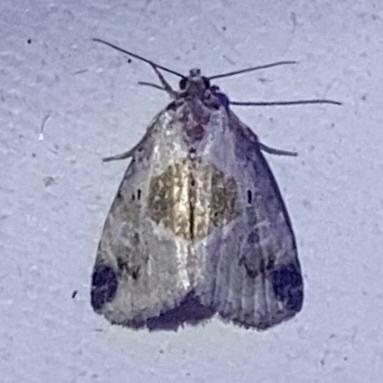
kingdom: Animalia
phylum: Arthropoda
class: Insecta
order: Lepidoptera
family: Noctuidae
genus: Maliattha
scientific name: Maliattha synochitis
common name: Black-dotted glyph
